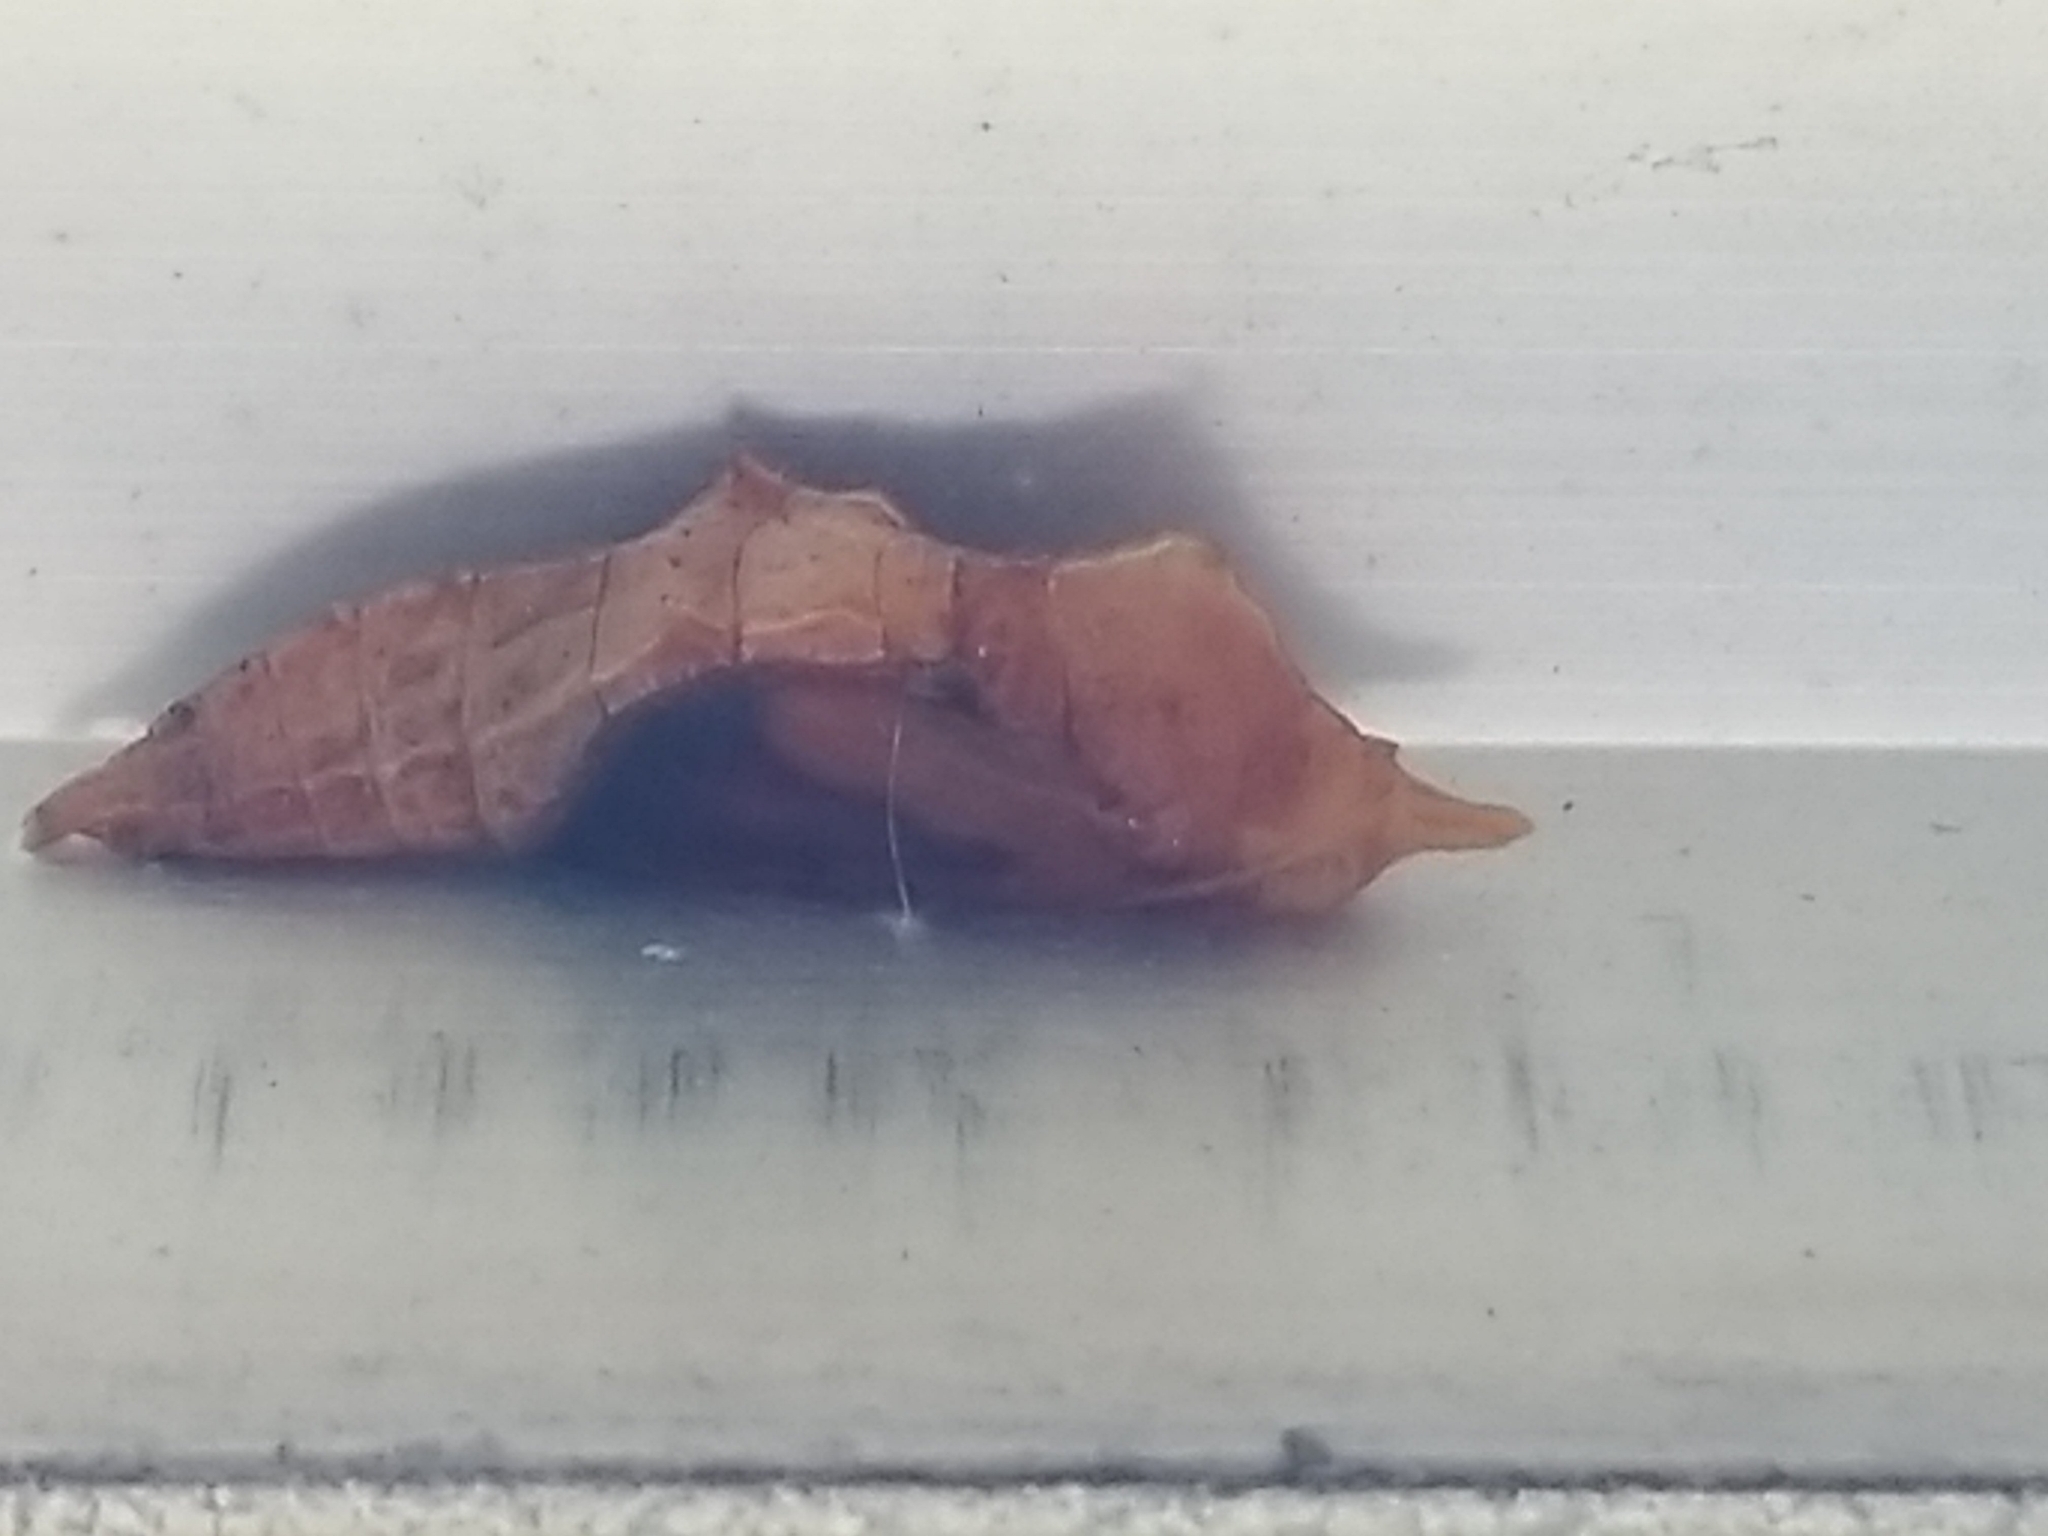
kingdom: Animalia
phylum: Arthropoda
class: Insecta
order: Lepidoptera
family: Pieridae
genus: Pieris
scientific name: Pieris rapae
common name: Small white
